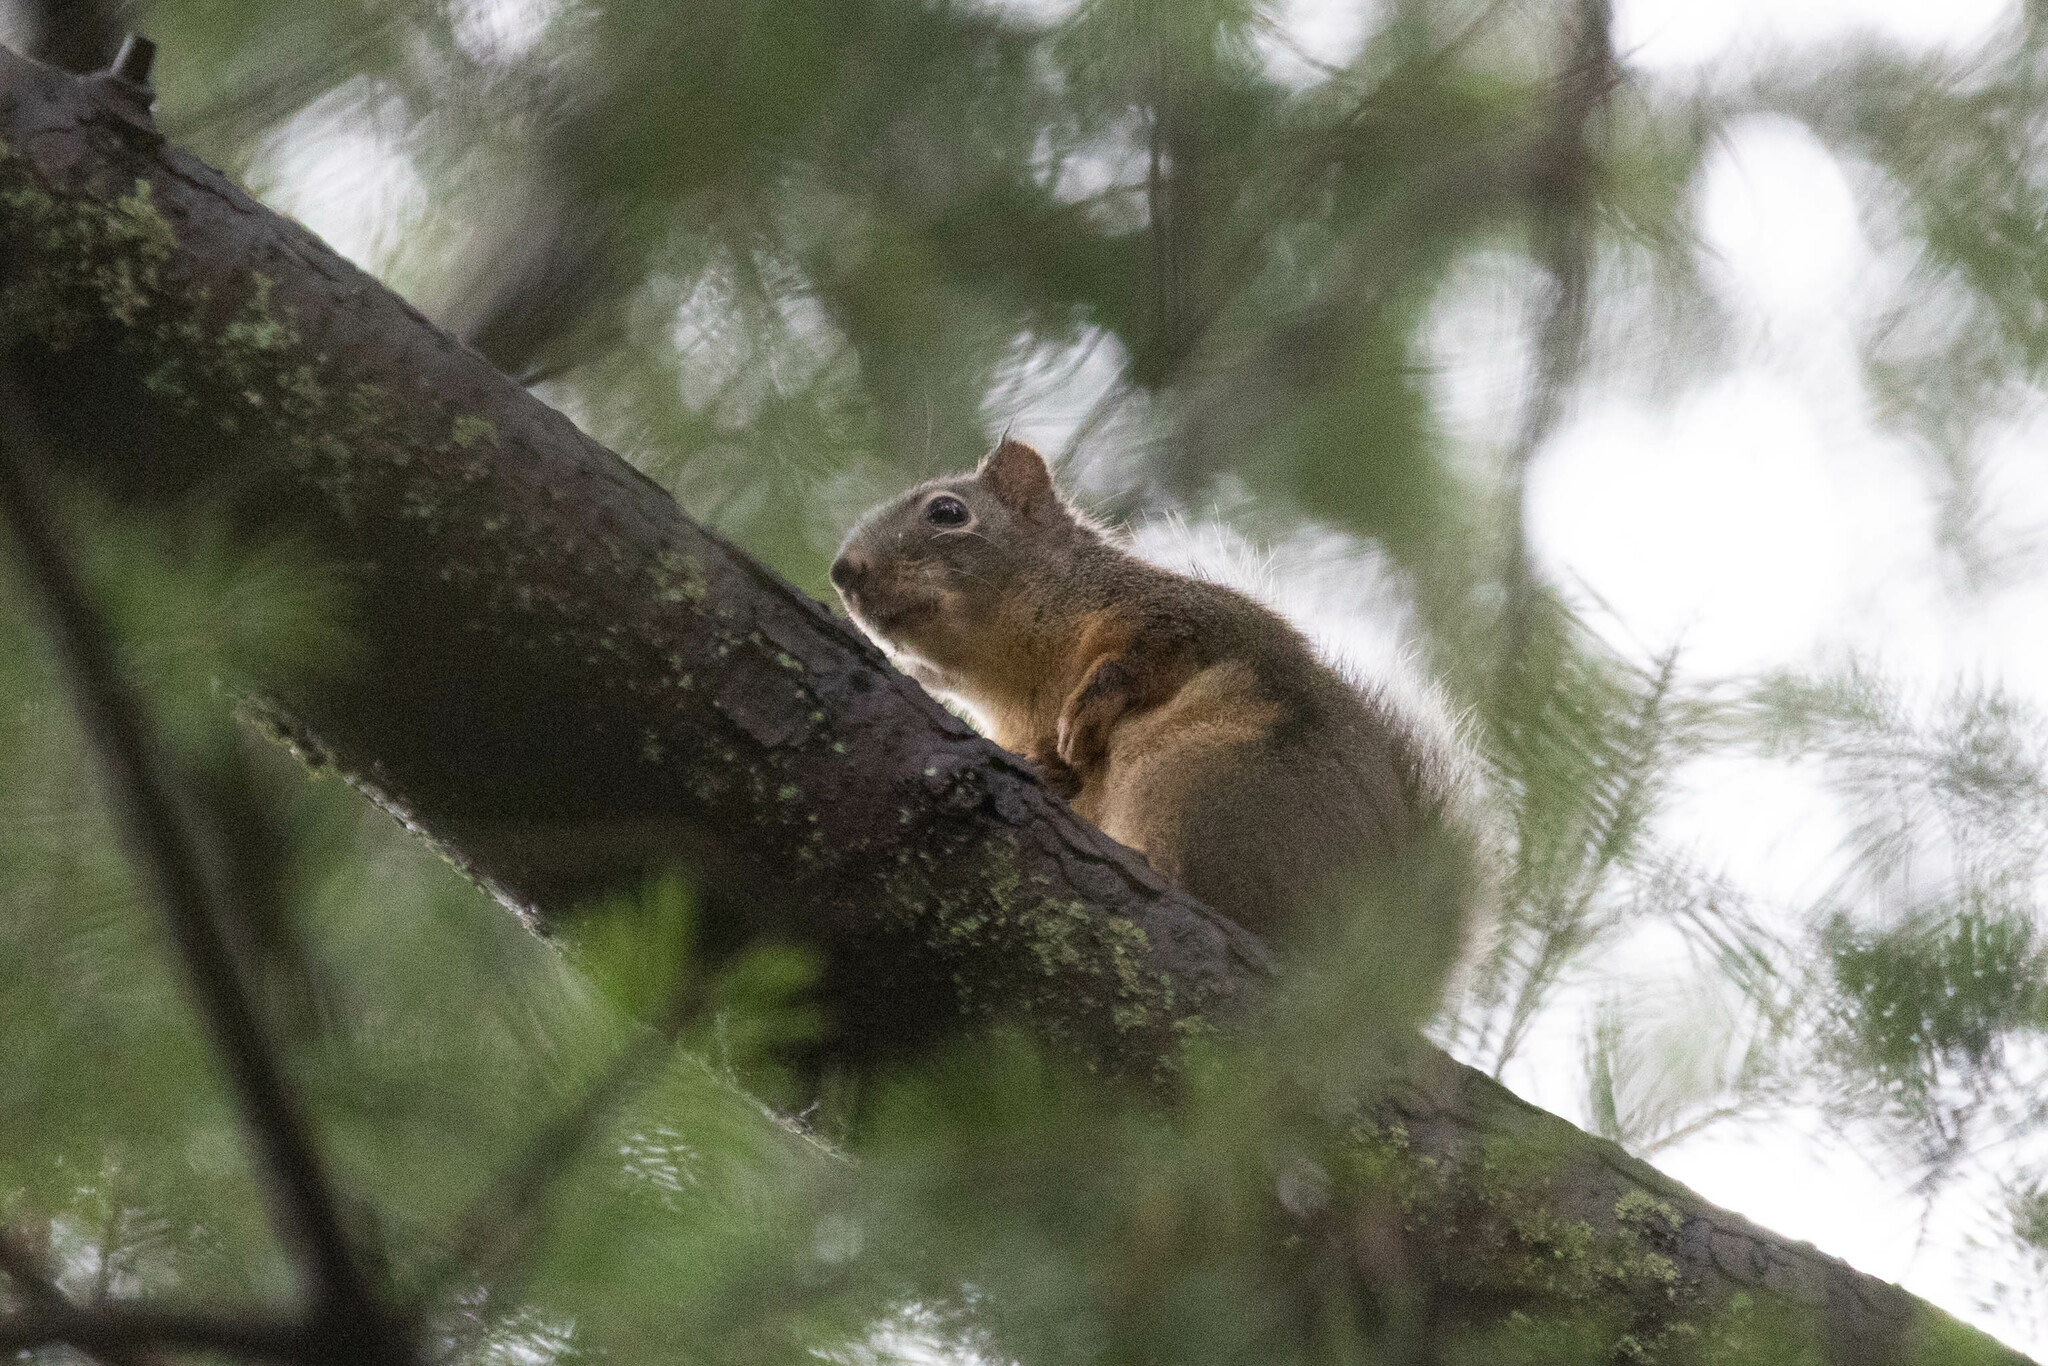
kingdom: Animalia
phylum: Chordata
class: Mammalia
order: Rodentia
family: Sciuridae
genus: Tamiasciurus
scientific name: Tamiasciurus douglasii
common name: Douglas's squirrel
